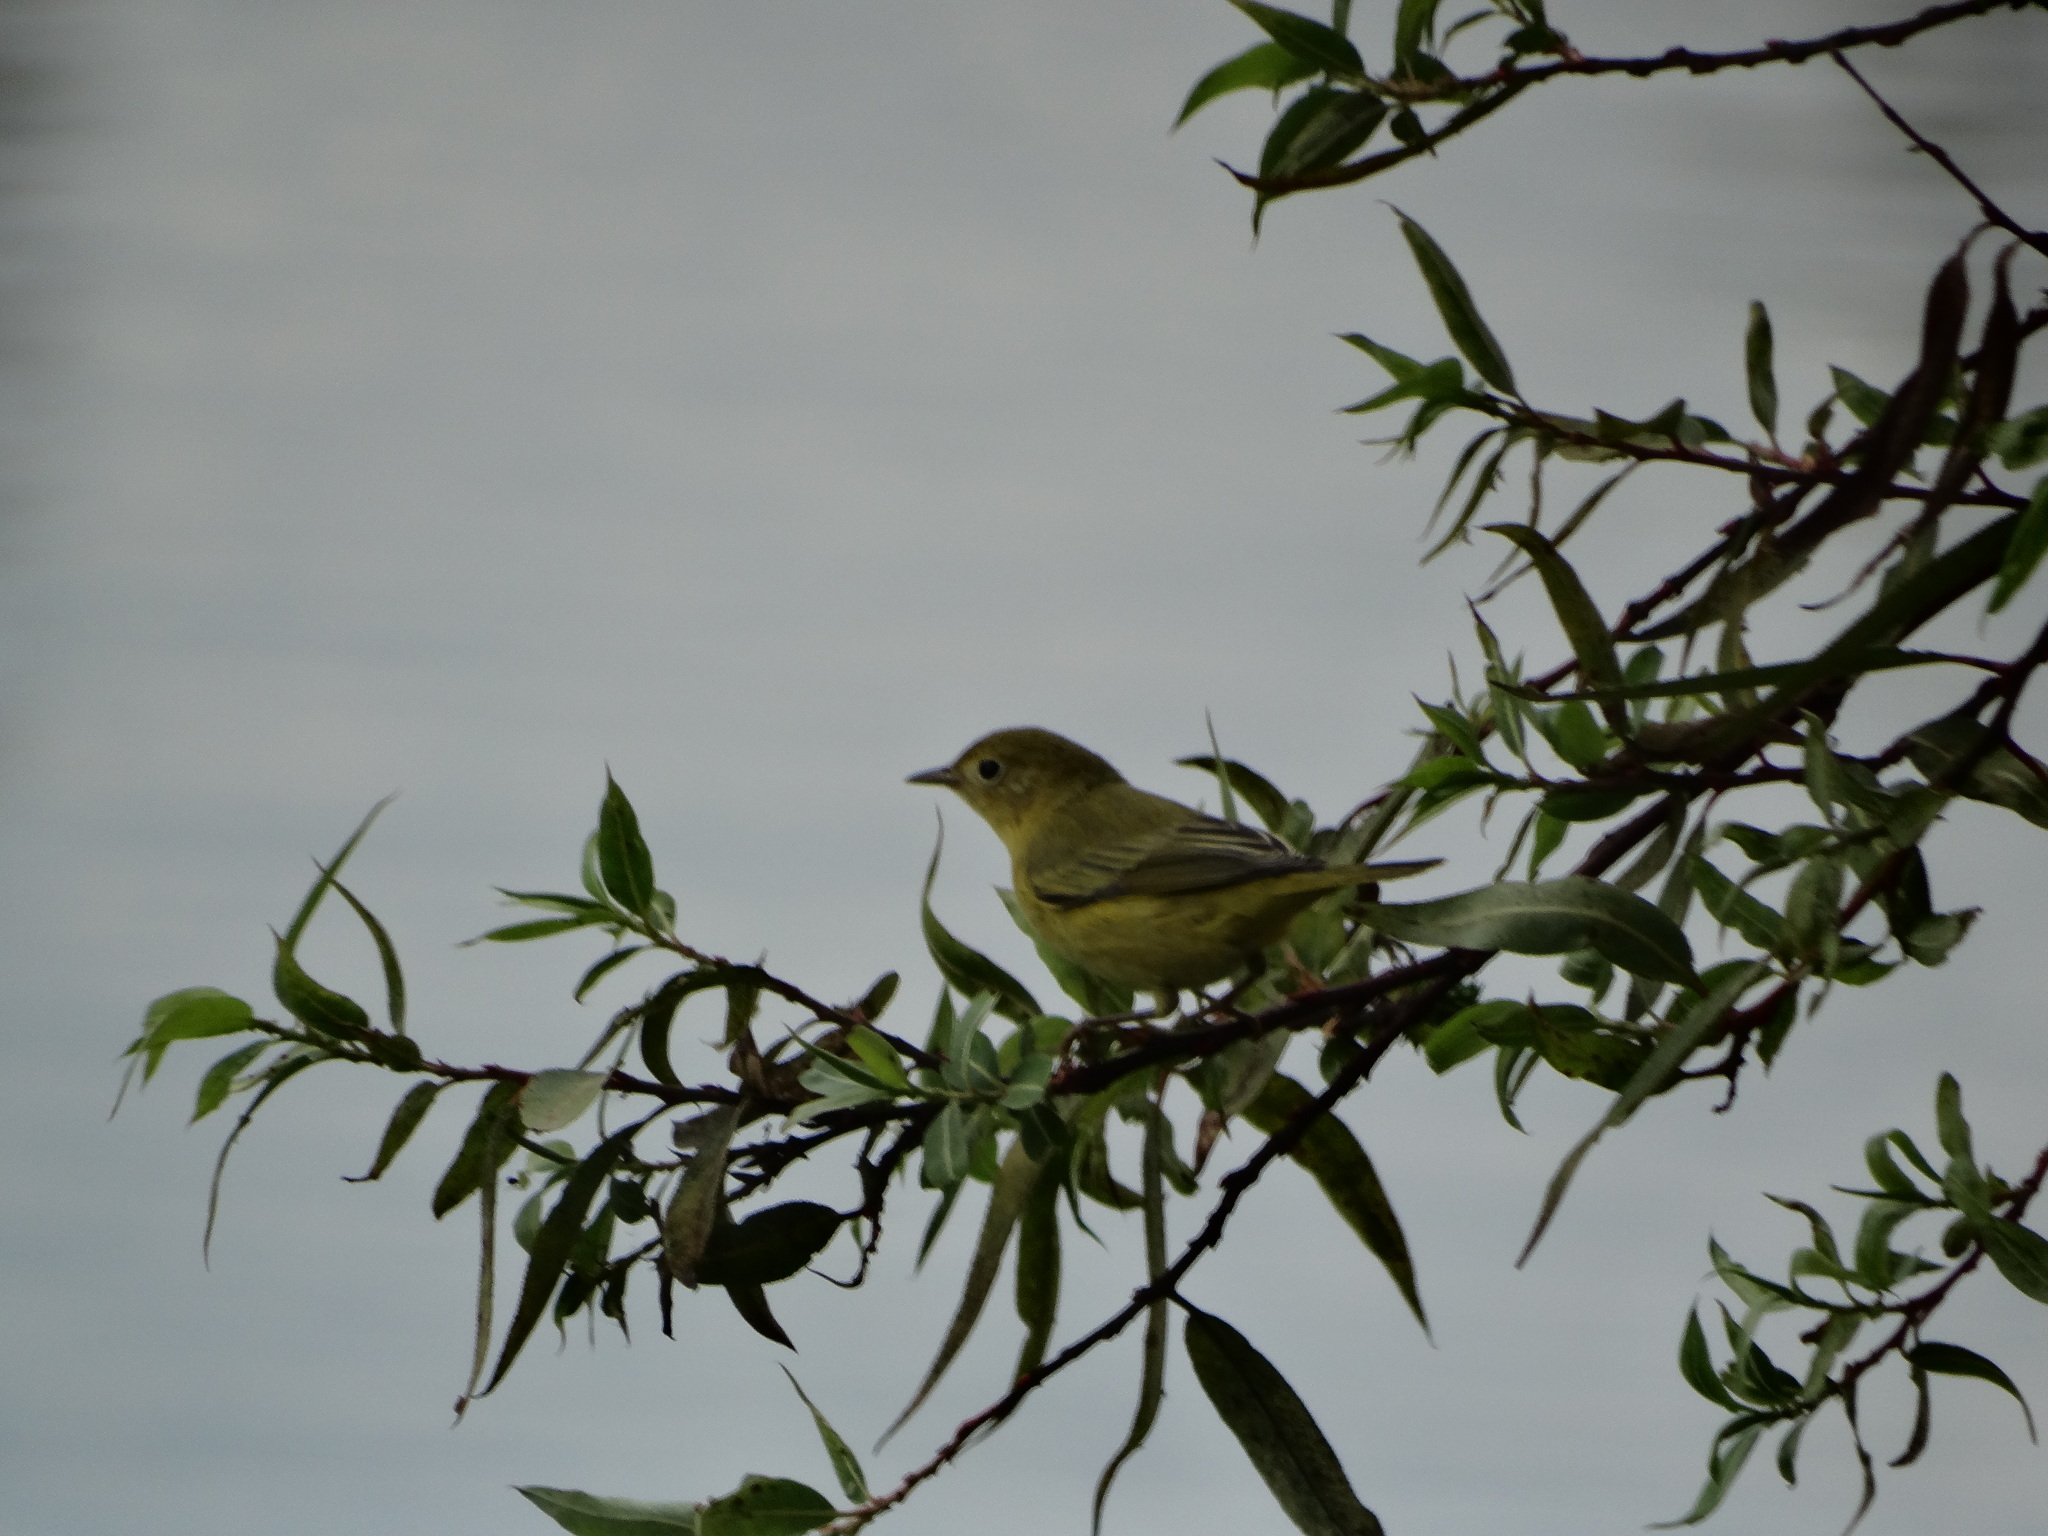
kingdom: Animalia
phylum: Chordata
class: Aves
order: Passeriformes
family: Parulidae
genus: Setophaga
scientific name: Setophaga petechia
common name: Yellow warbler
